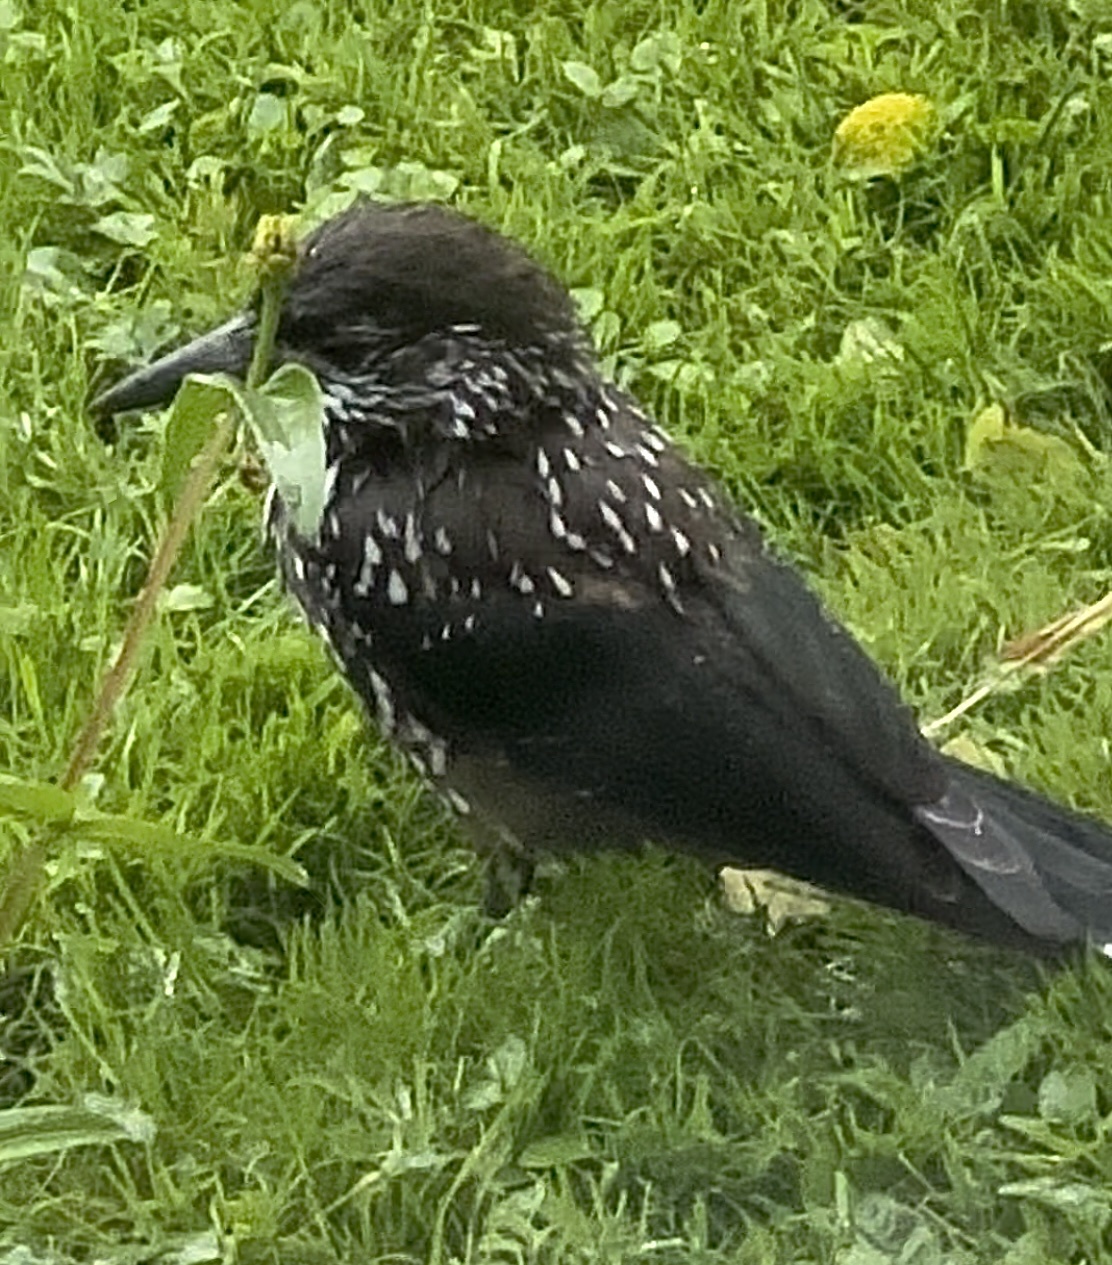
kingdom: Animalia
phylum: Chordata
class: Aves
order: Passeriformes
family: Corvidae
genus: Nucifraga
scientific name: Nucifraga caryocatactes
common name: Spotted nutcracker
